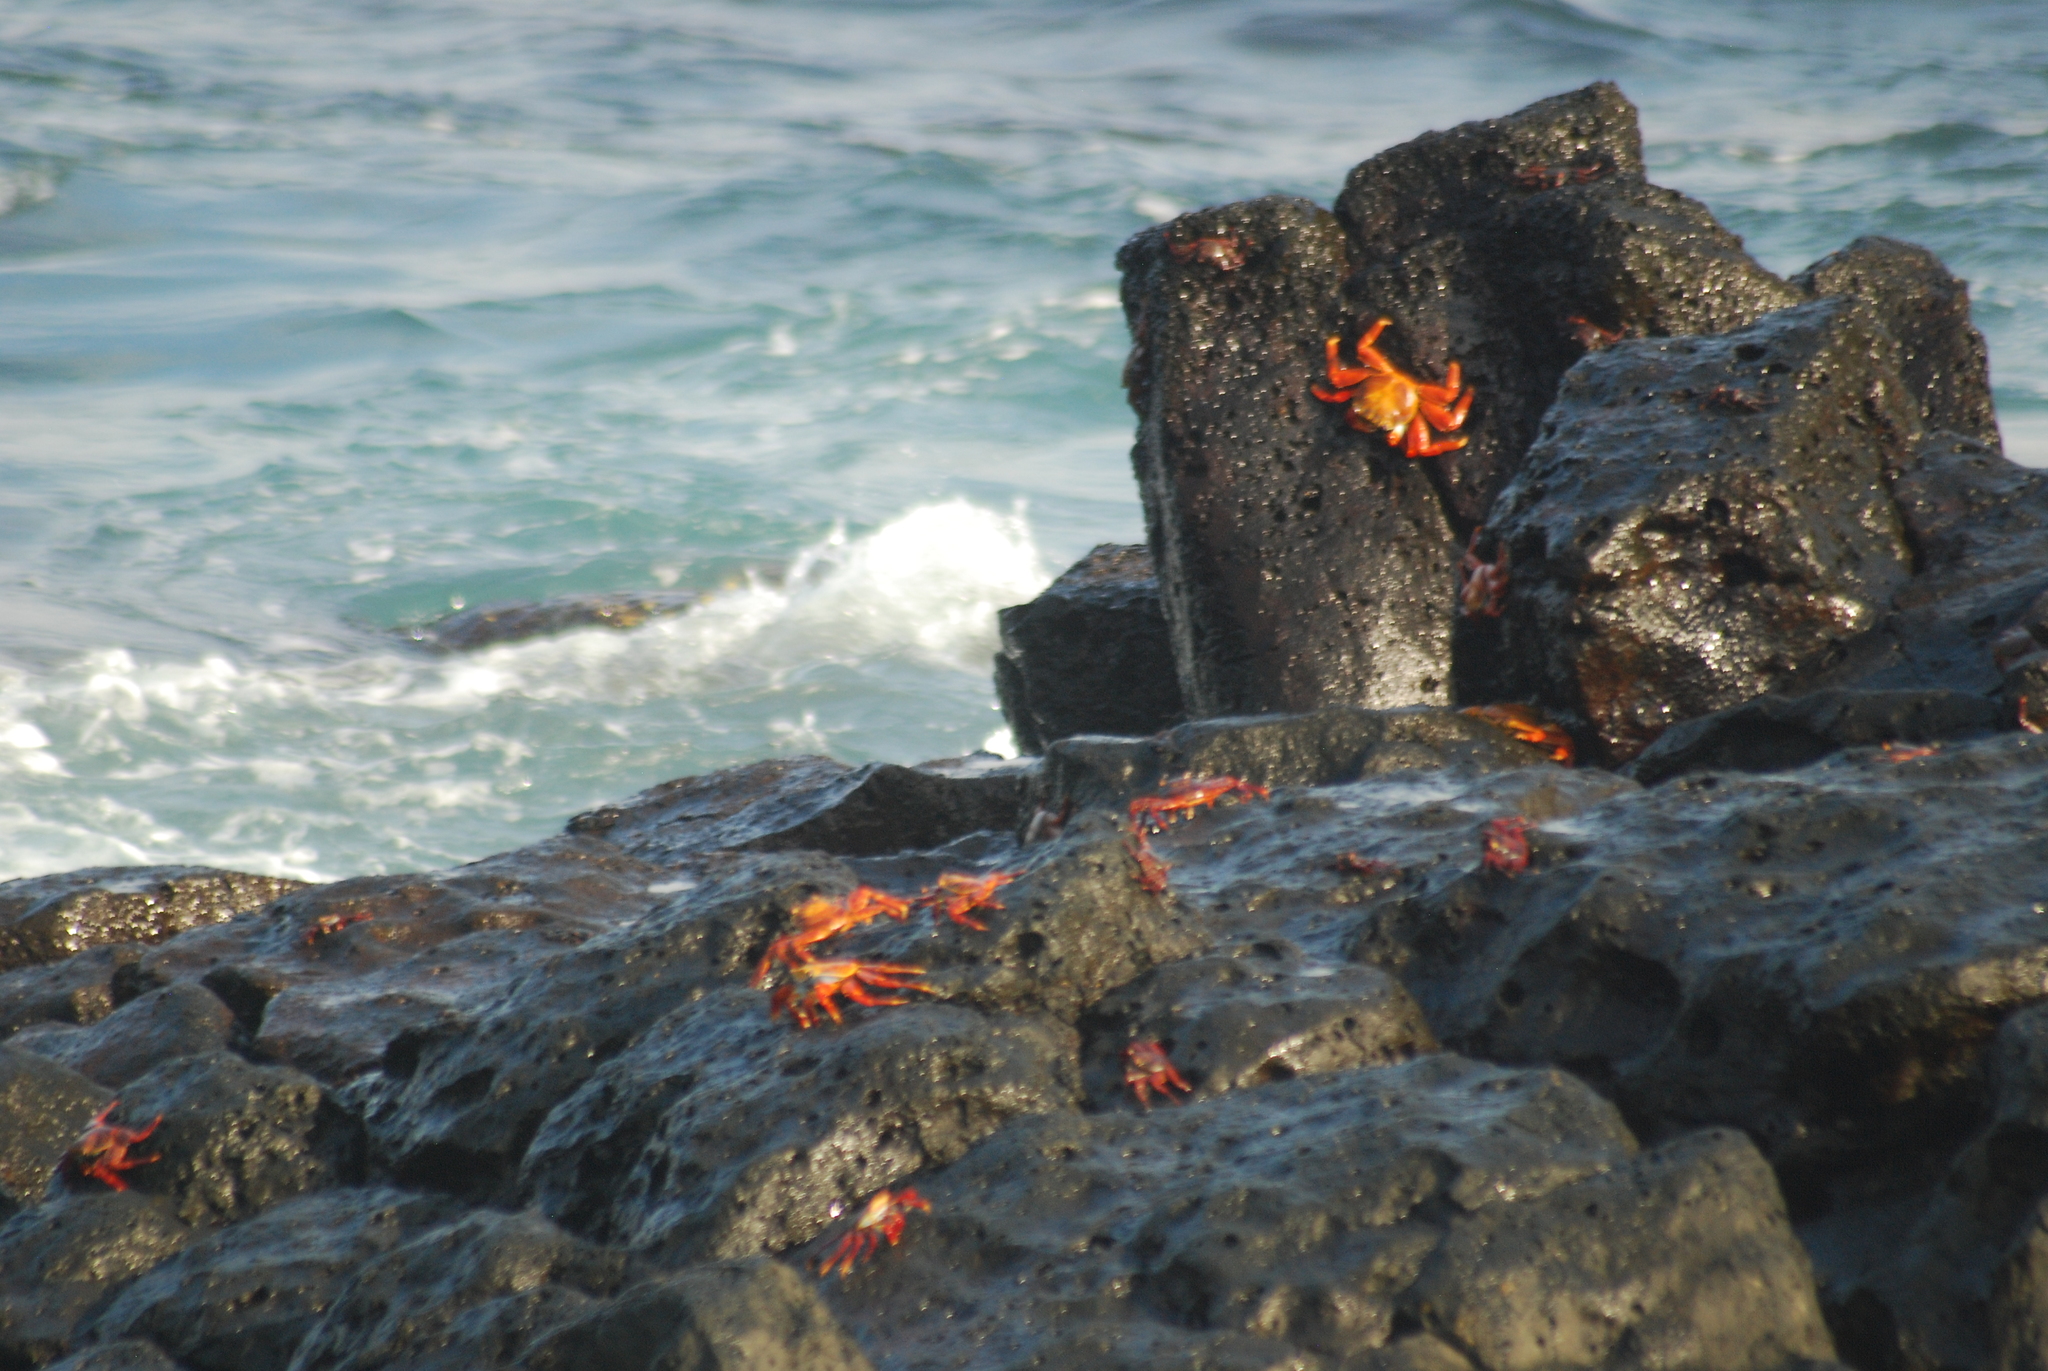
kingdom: Animalia
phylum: Arthropoda
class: Malacostraca
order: Decapoda
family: Grapsidae
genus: Grapsus
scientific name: Grapsus grapsus
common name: Sally lightfoot
